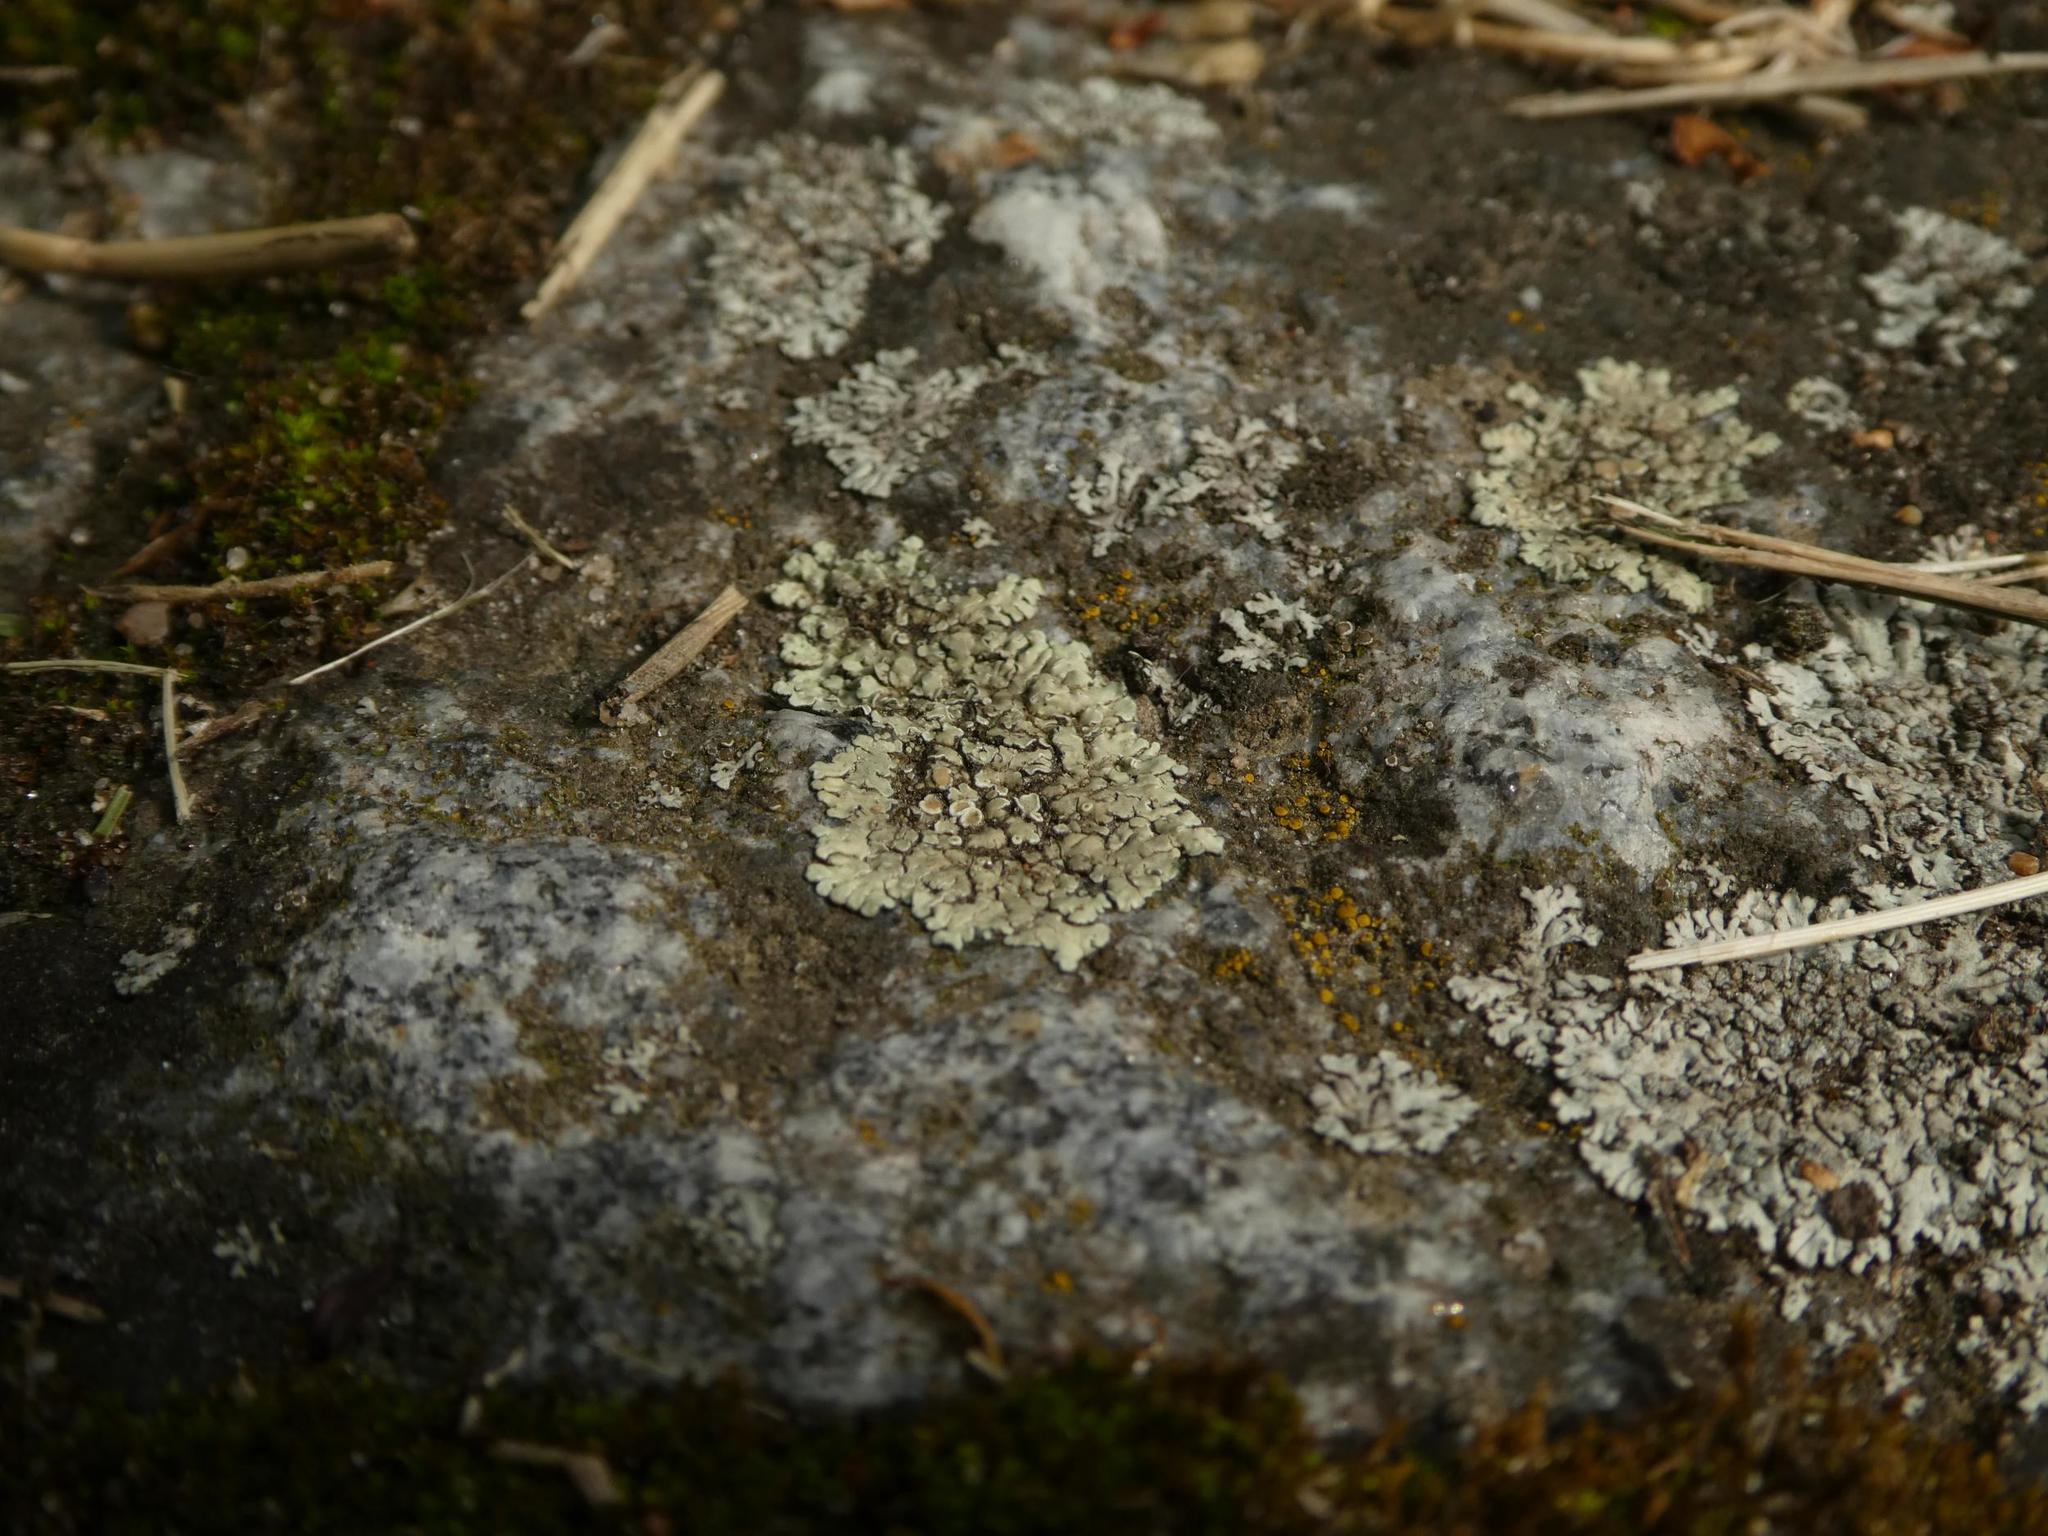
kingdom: Fungi
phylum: Ascomycota
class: Lecanoromycetes
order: Lecanorales
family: Lecanoraceae
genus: Protoparmeliopsis
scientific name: Protoparmeliopsis muralis
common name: Stonewall rim lichen
